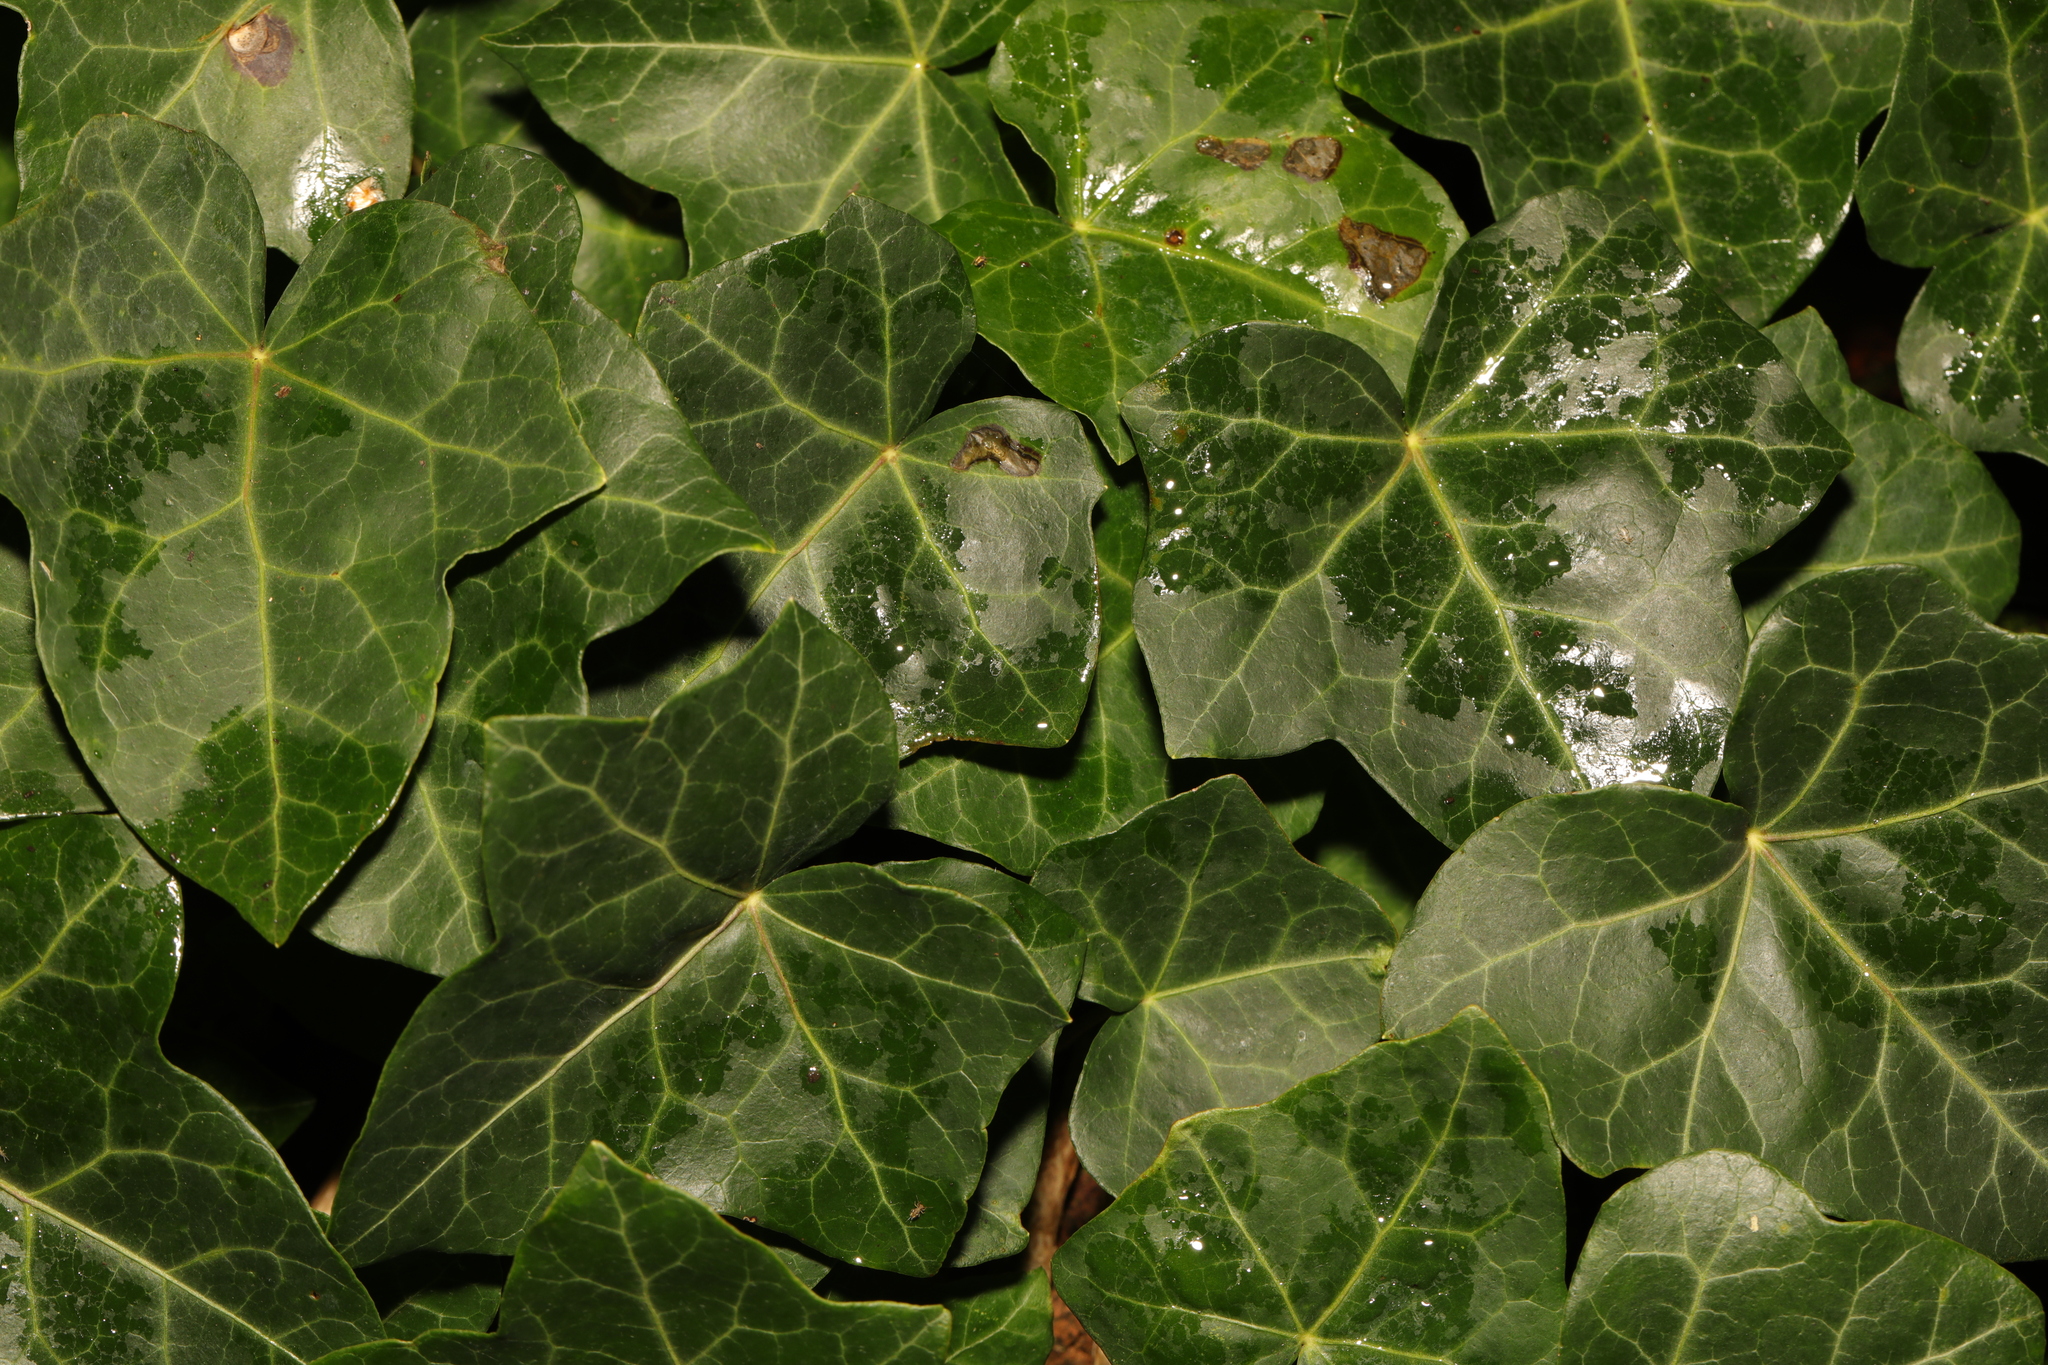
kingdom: Plantae
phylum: Tracheophyta
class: Magnoliopsida
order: Apiales
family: Araliaceae
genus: Hedera
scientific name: Hedera helix
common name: Ivy
